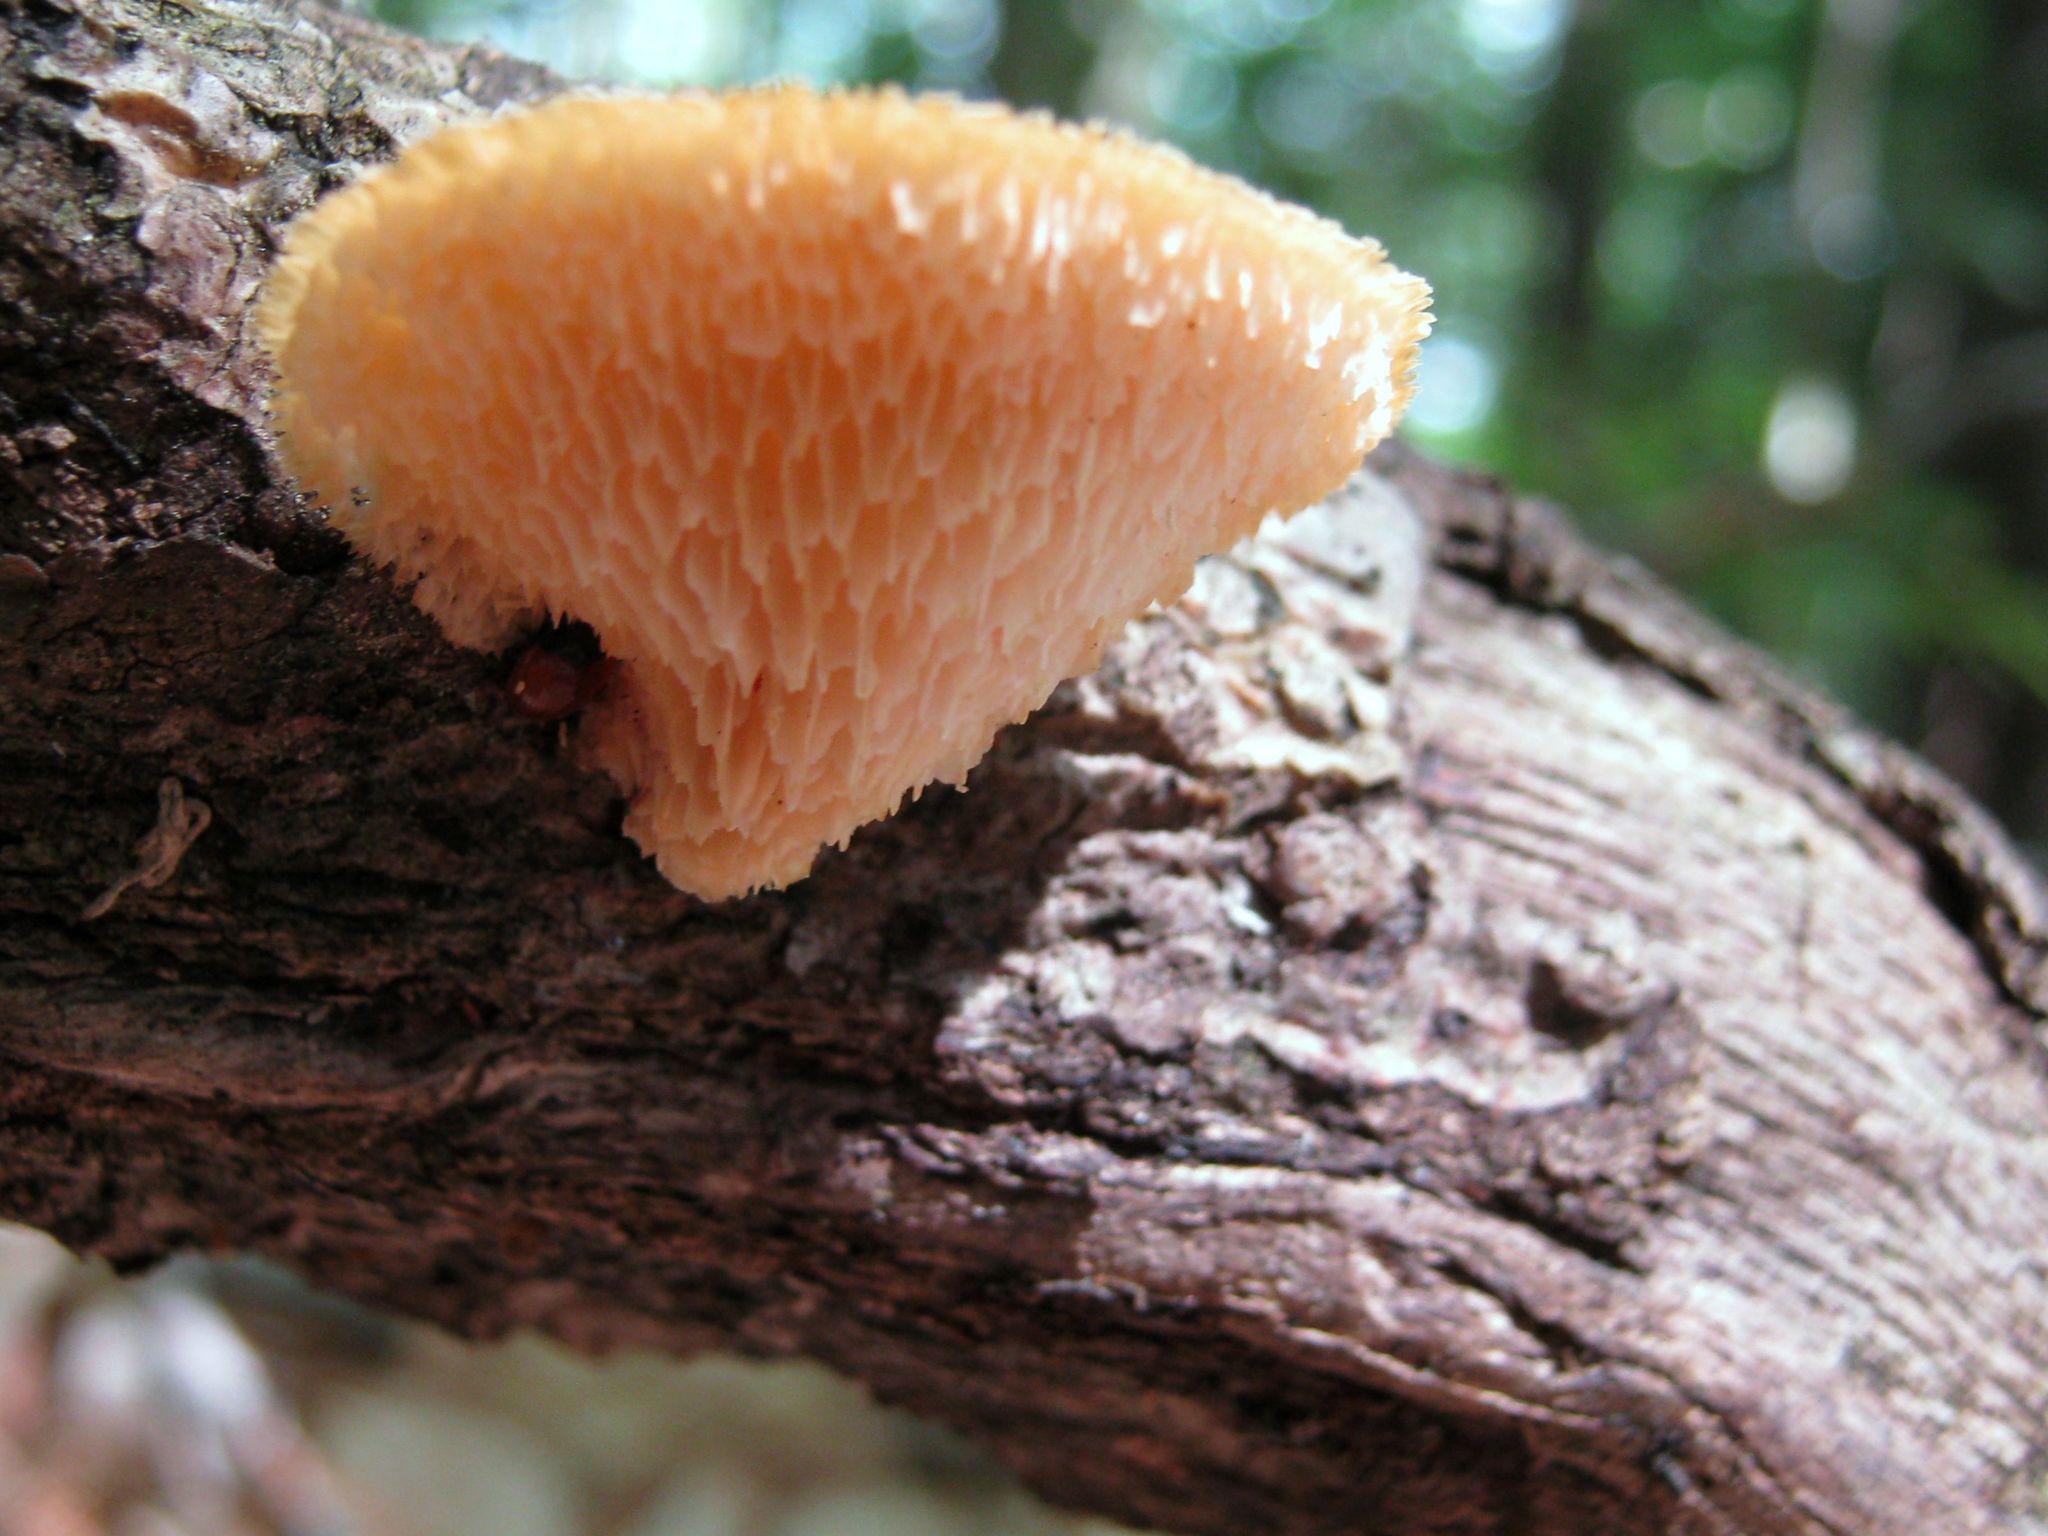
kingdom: Fungi
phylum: Basidiomycota
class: Agaricomycetes
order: Polyporales
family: Polyporaceae
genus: Neofavolus
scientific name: Neofavolus alveolaris
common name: Hexagonal-pored polypore
